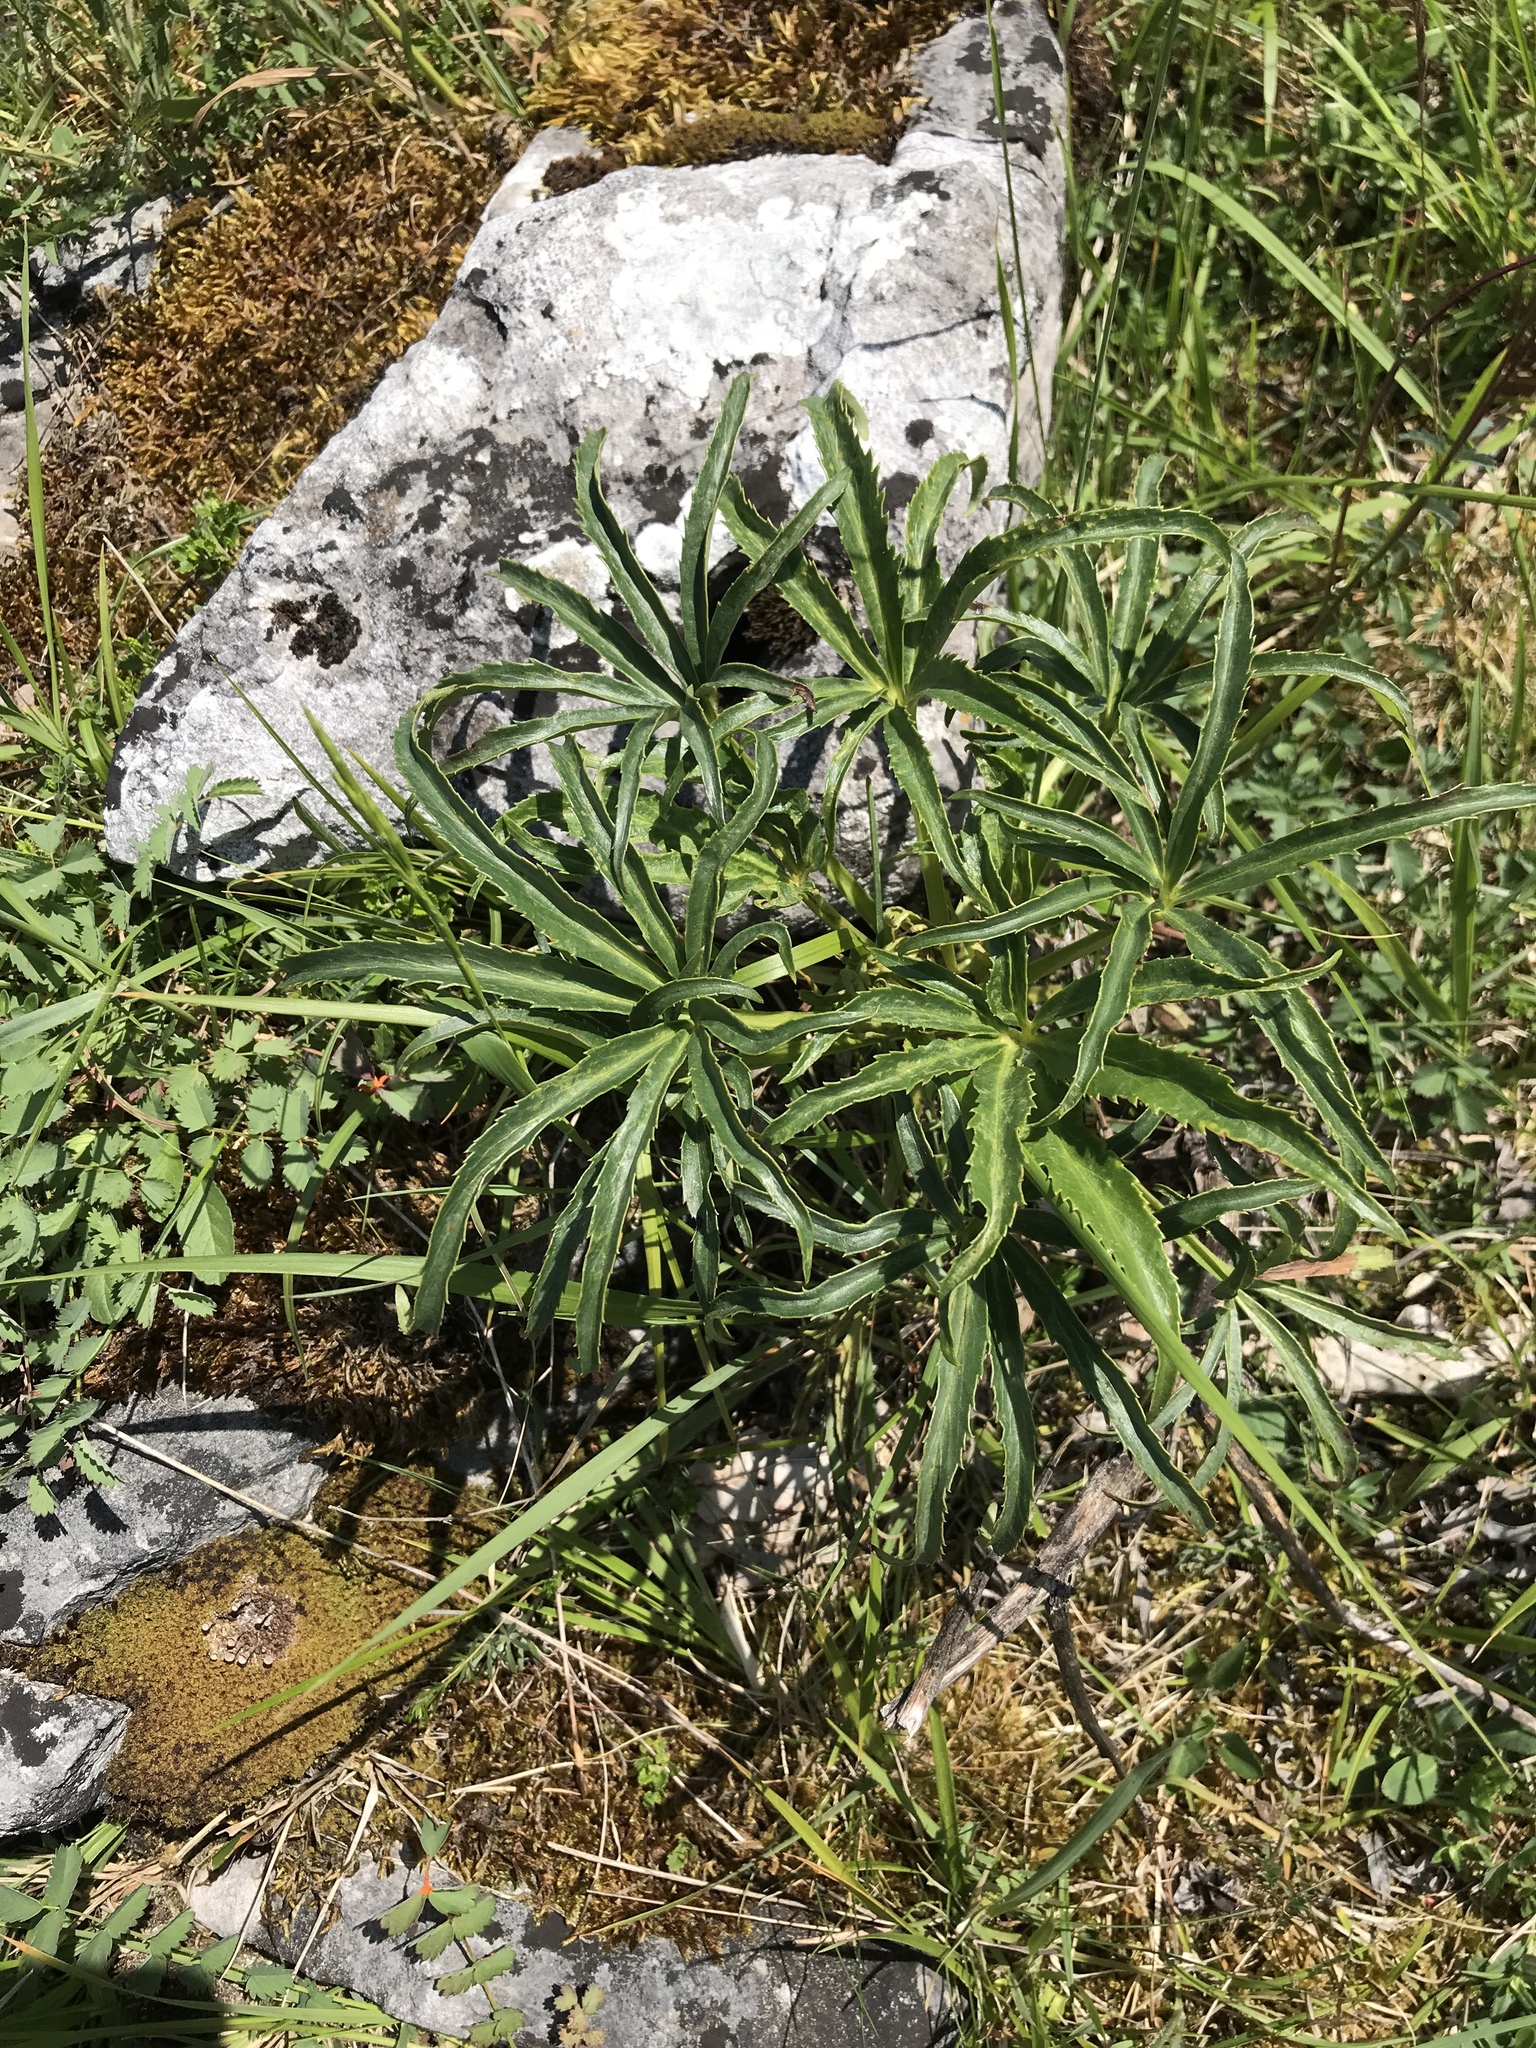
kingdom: Plantae
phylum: Tracheophyta
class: Magnoliopsida
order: Ranunculales
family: Ranunculaceae
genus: Helleborus
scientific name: Helleborus foetidus
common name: Stinking hellebore
